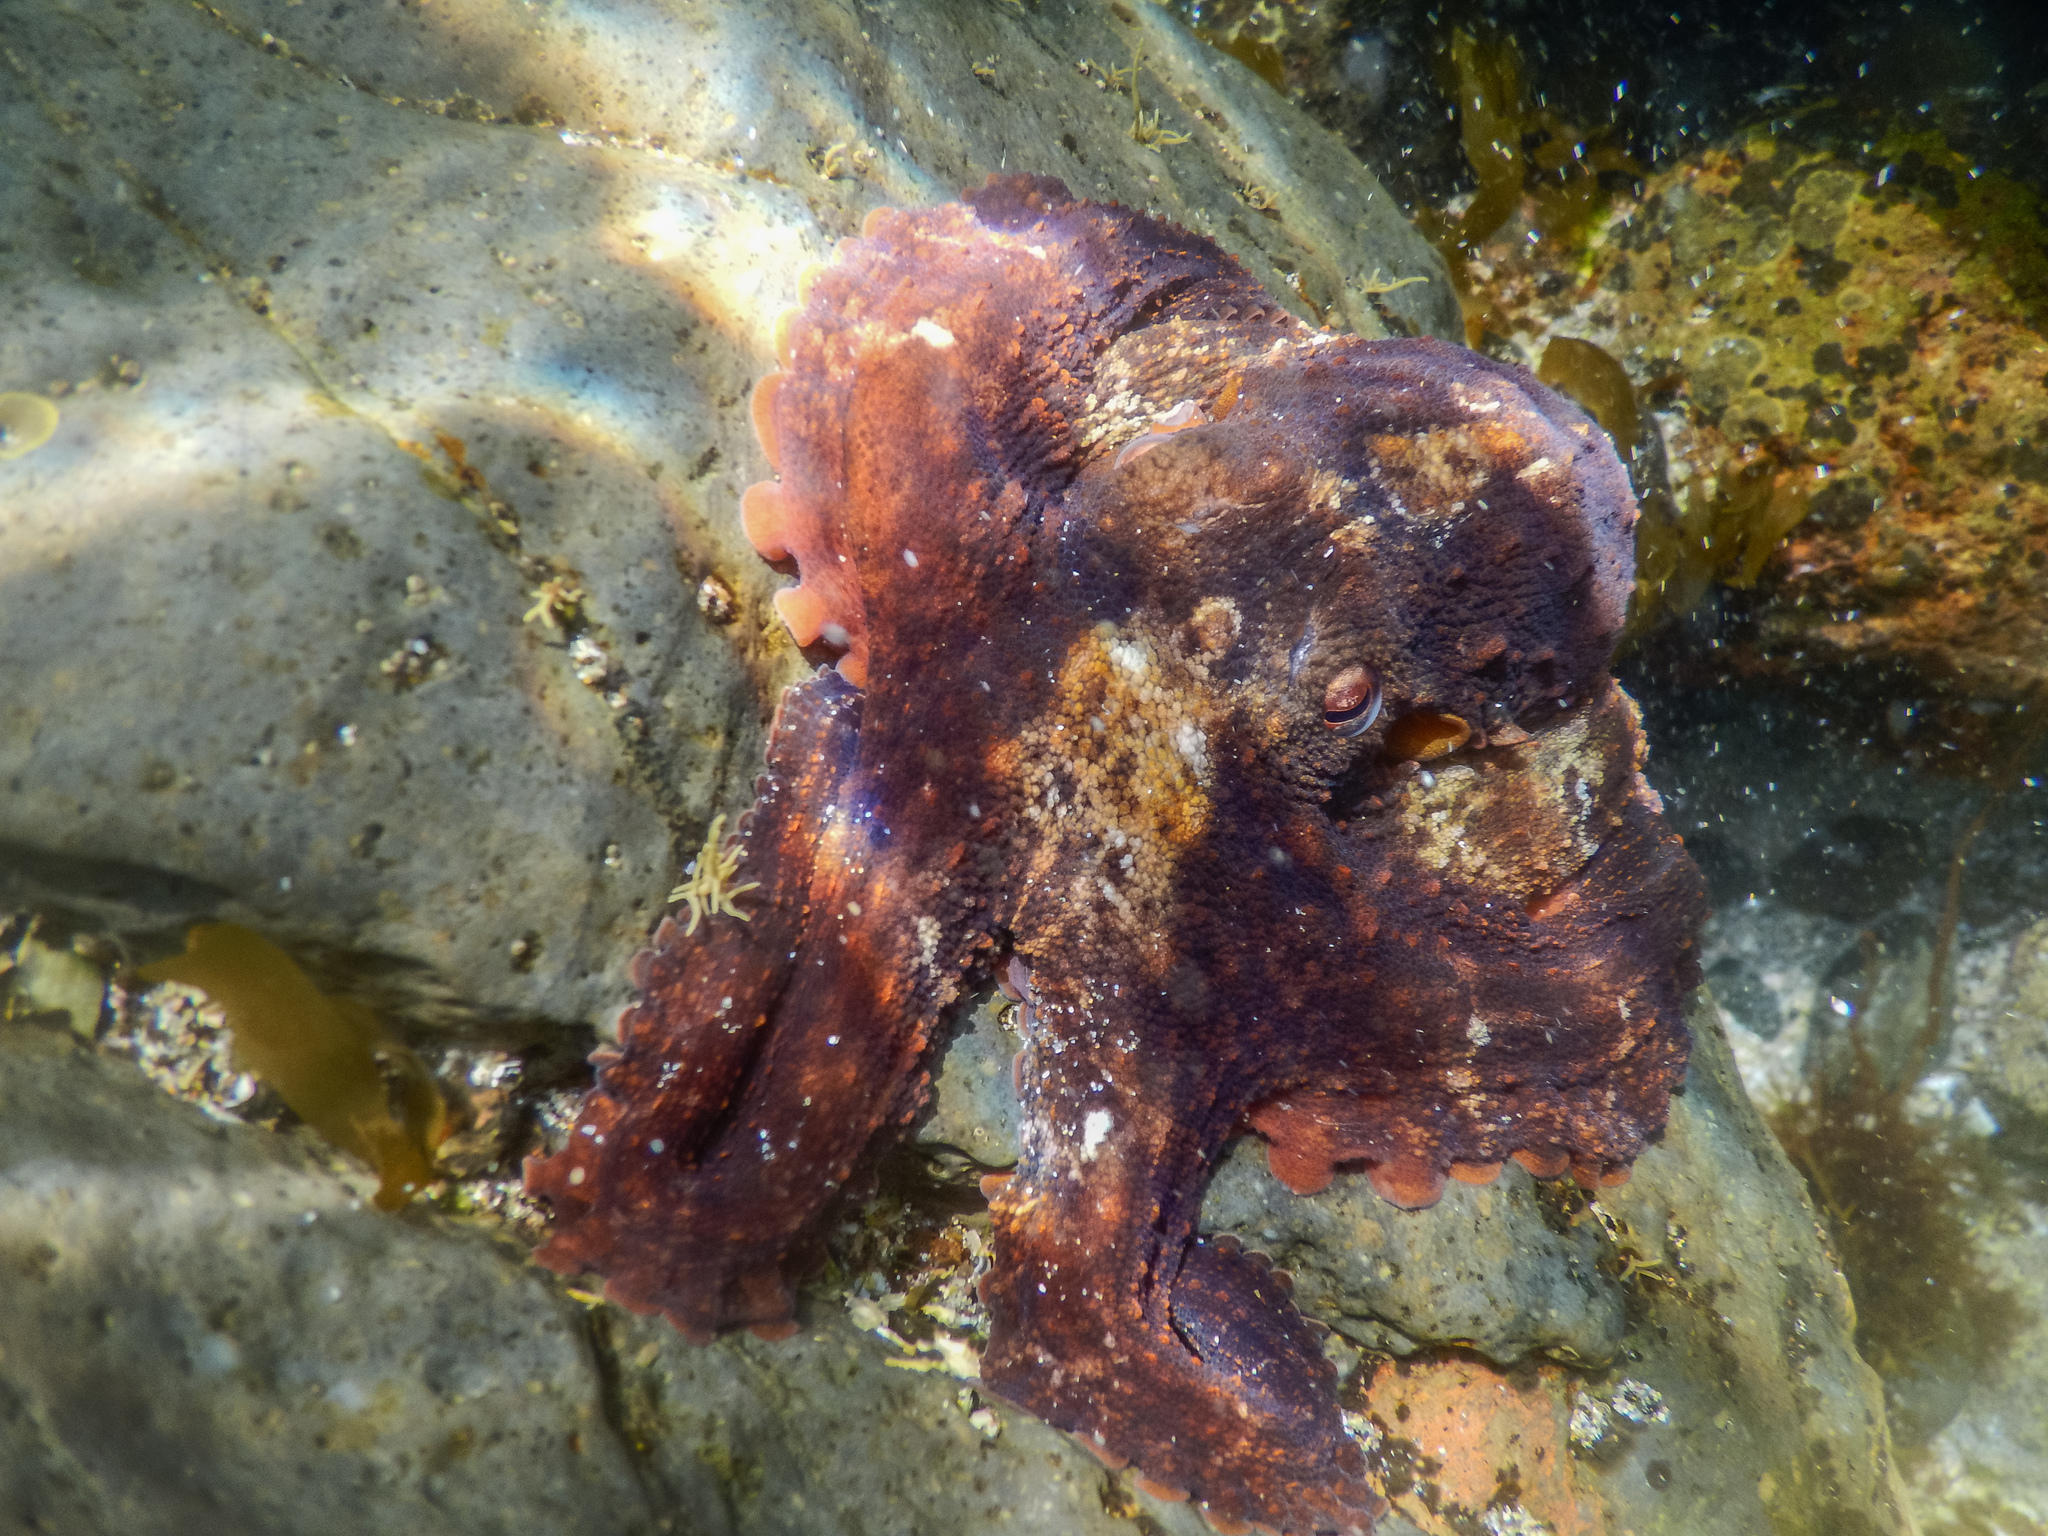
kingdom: Animalia
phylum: Mollusca
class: Cephalopoda
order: Octopoda
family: Octopodidae
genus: Octopus
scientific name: Octopus tetricus
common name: Sydney octopus
